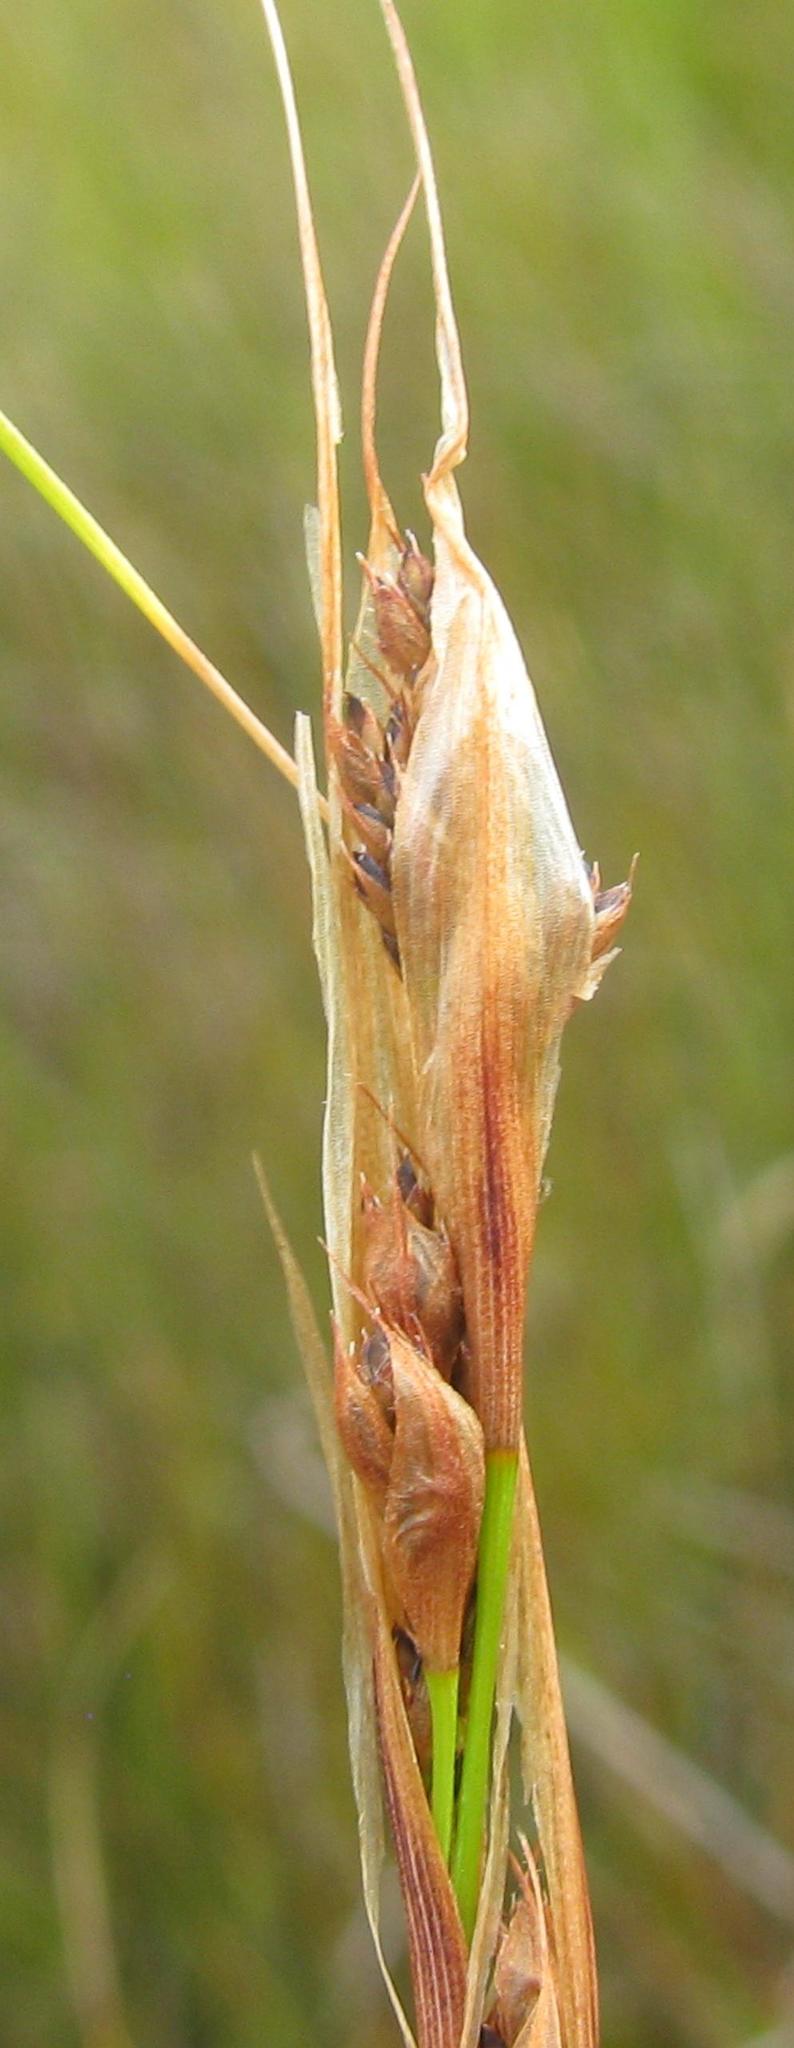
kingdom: Plantae
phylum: Tracheophyta
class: Liliopsida
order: Poales
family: Cyperaceae
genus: Tetraria
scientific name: Tetraria fourcadei
